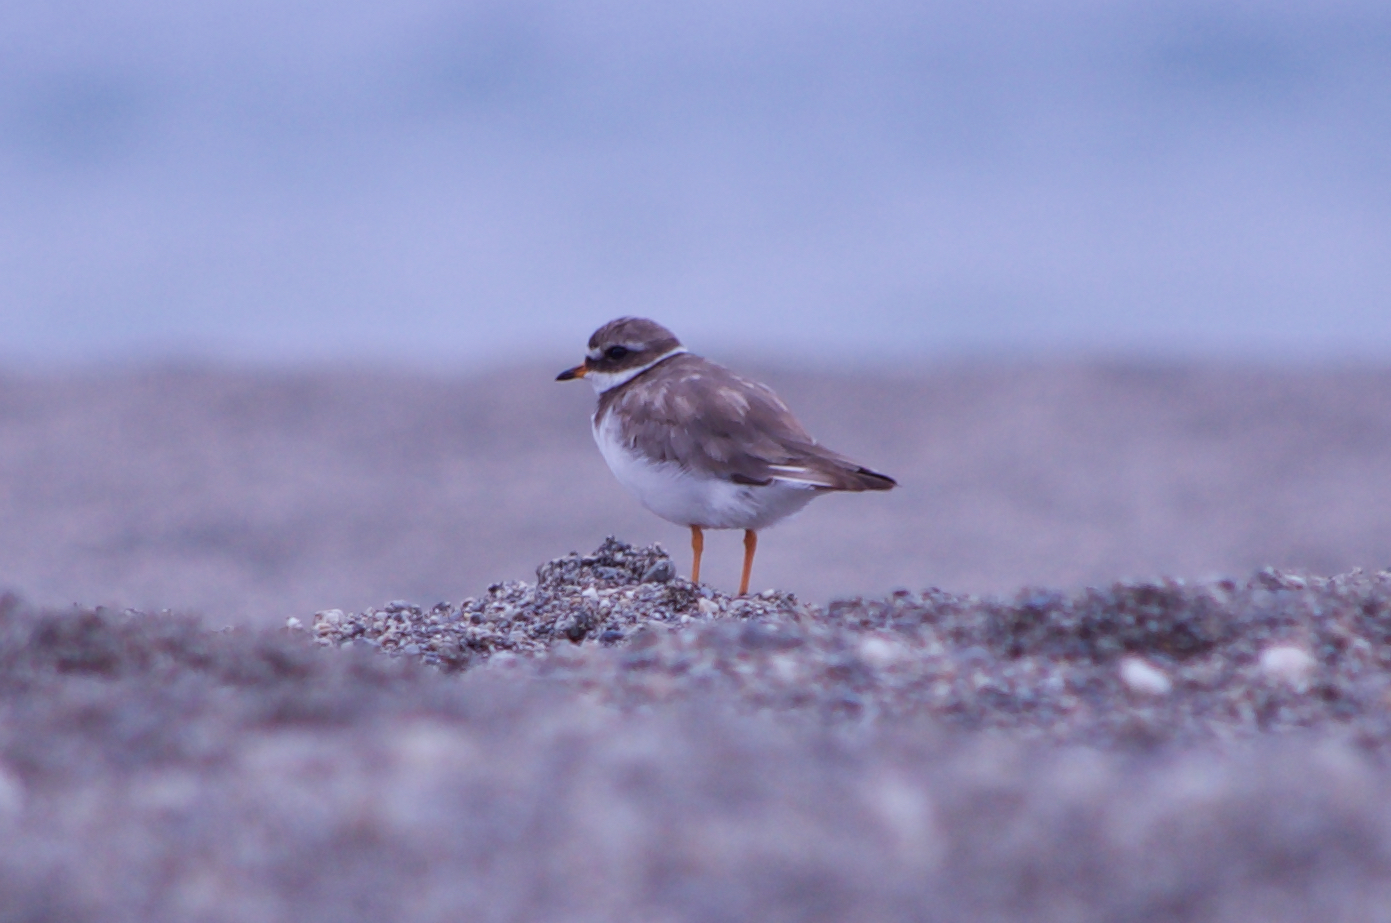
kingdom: Animalia
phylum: Chordata
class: Aves
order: Charadriiformes
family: Charadriidae
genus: Charadrius
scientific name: Charadrius hiaticula
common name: Common ringed plover
